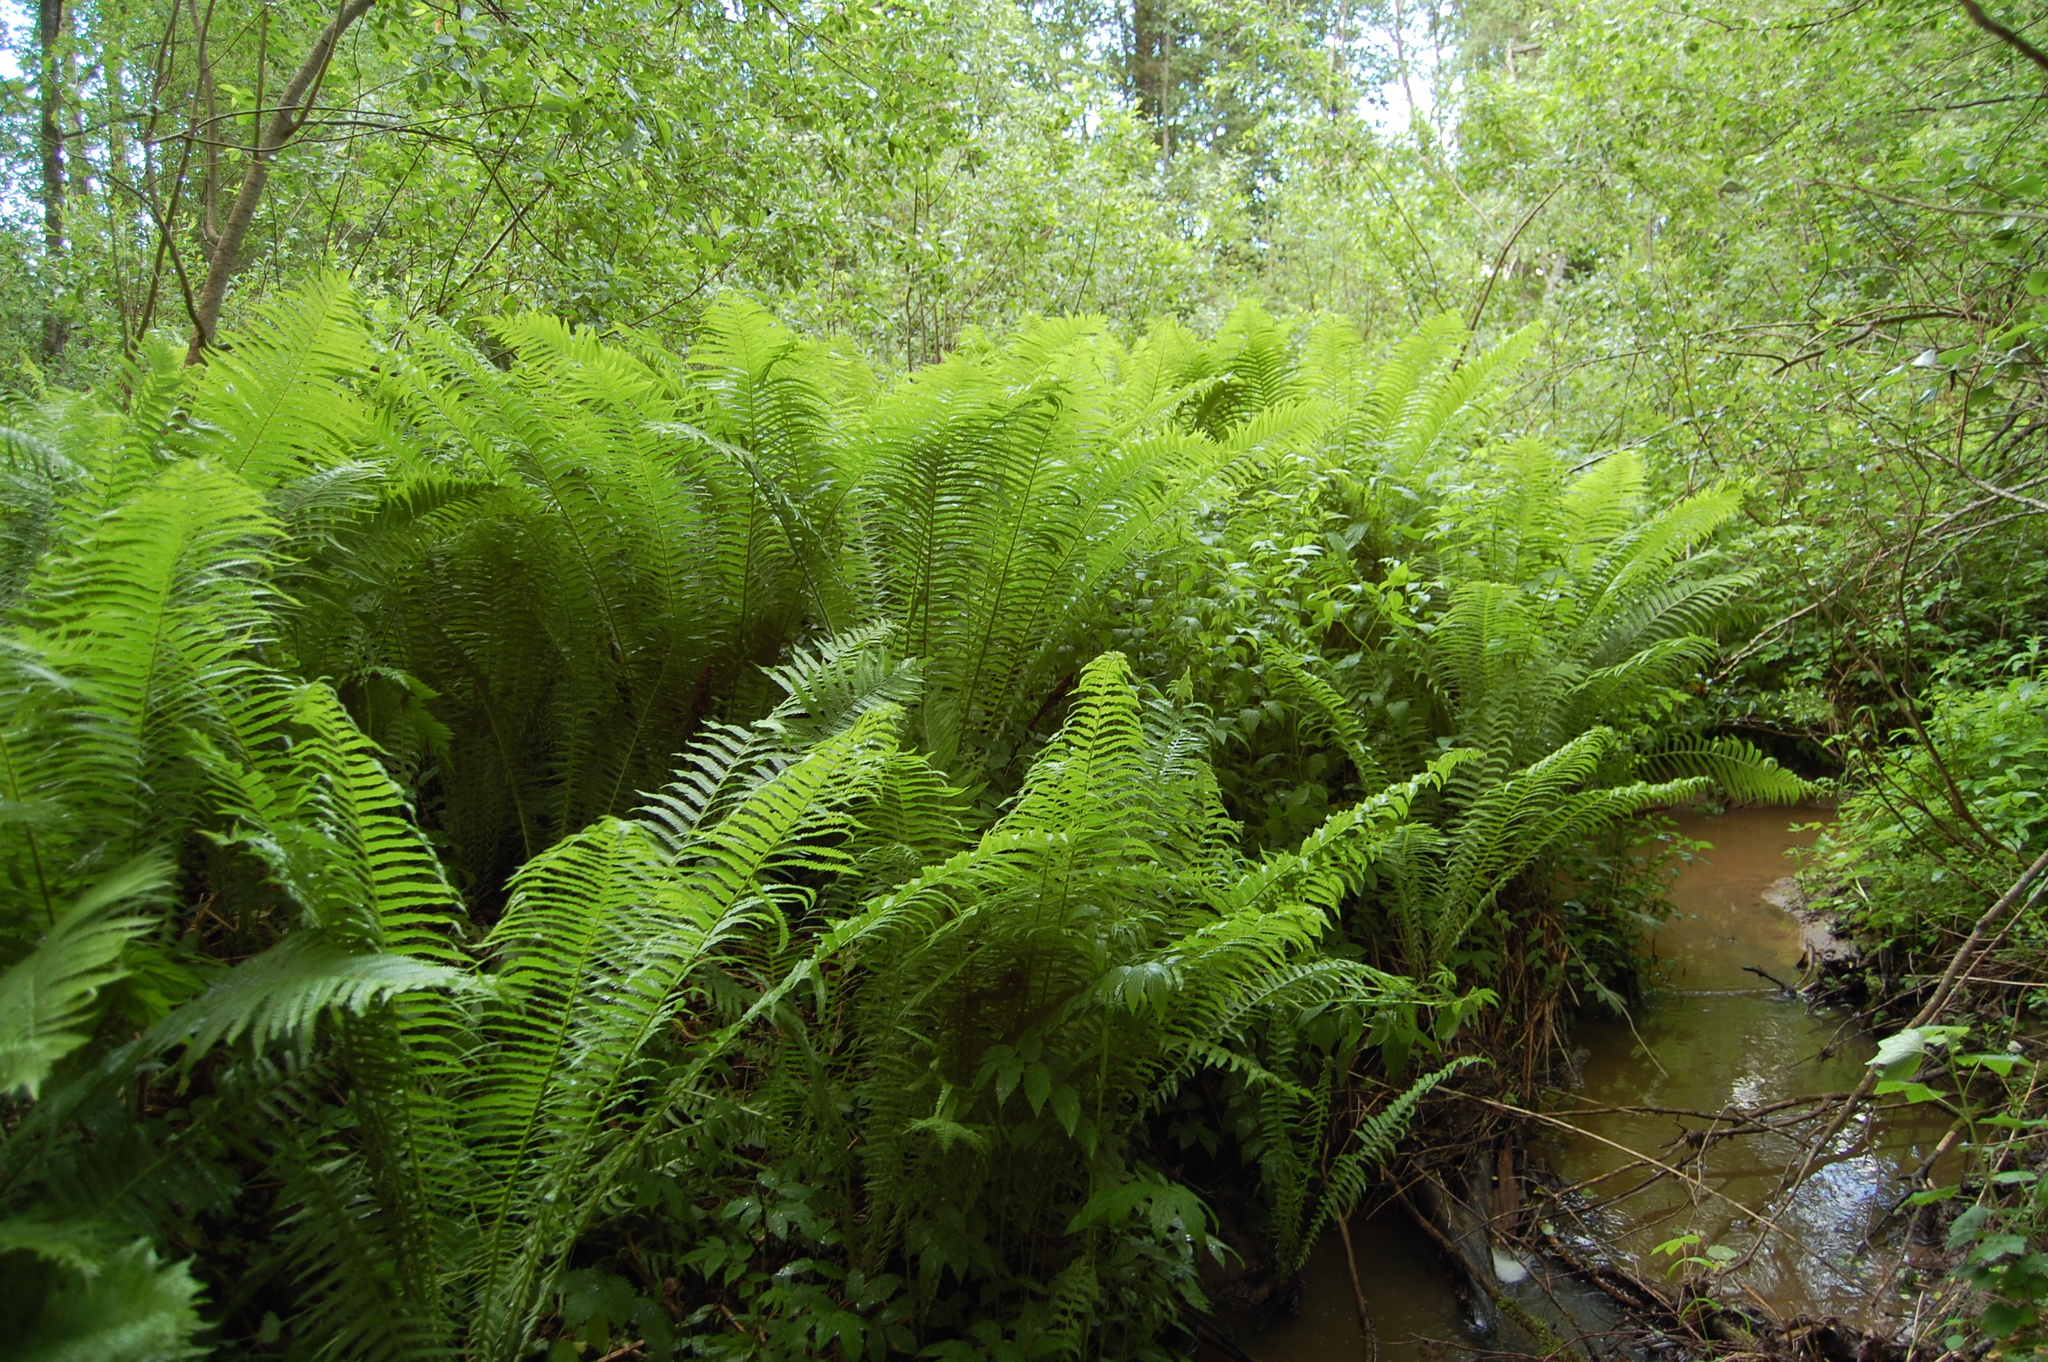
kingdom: Plantae
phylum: Tracheophyta
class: Polypodiopsida
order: Polypodiales
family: Onocleaceae
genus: Matteuccia
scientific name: Matteuccia struthiopteris
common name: Ostrich fern
